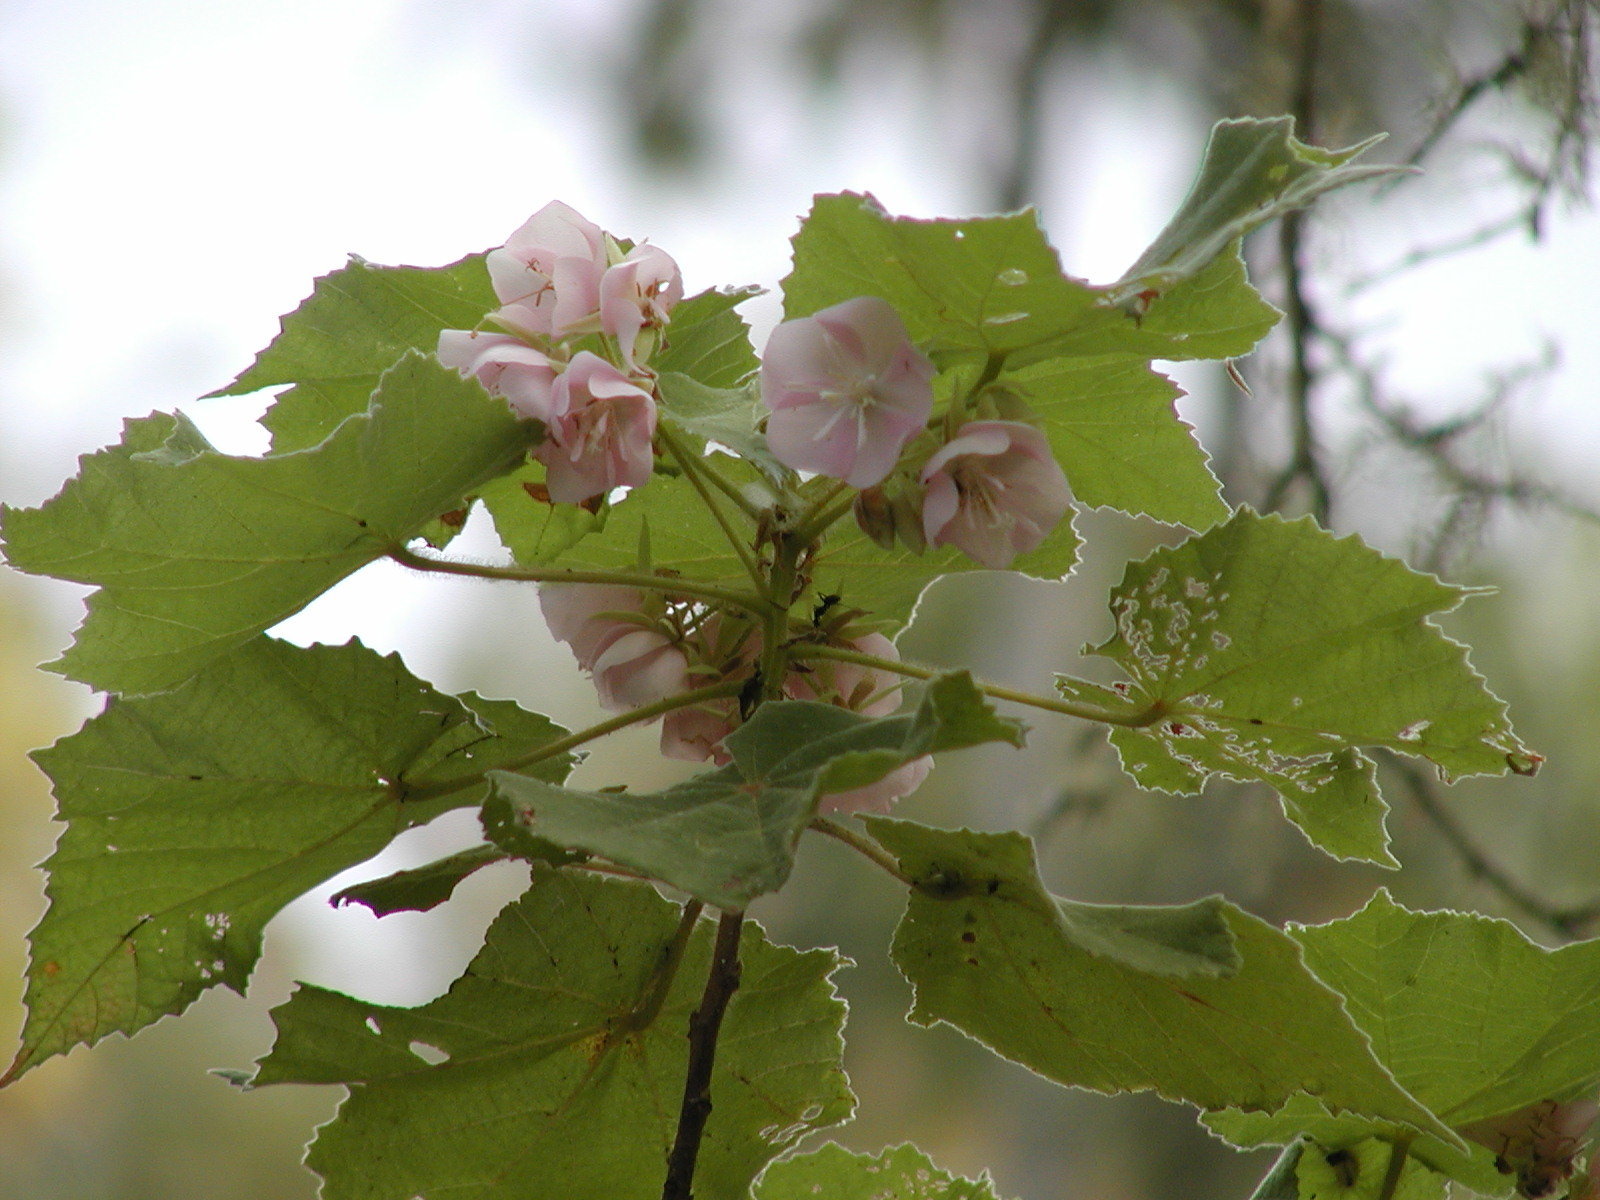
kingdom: Plantae
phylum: Tracheophyta
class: Magnoliopsida
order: Malvales
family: Malvaceae
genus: Dombeya
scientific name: Dombeya burgessiae
